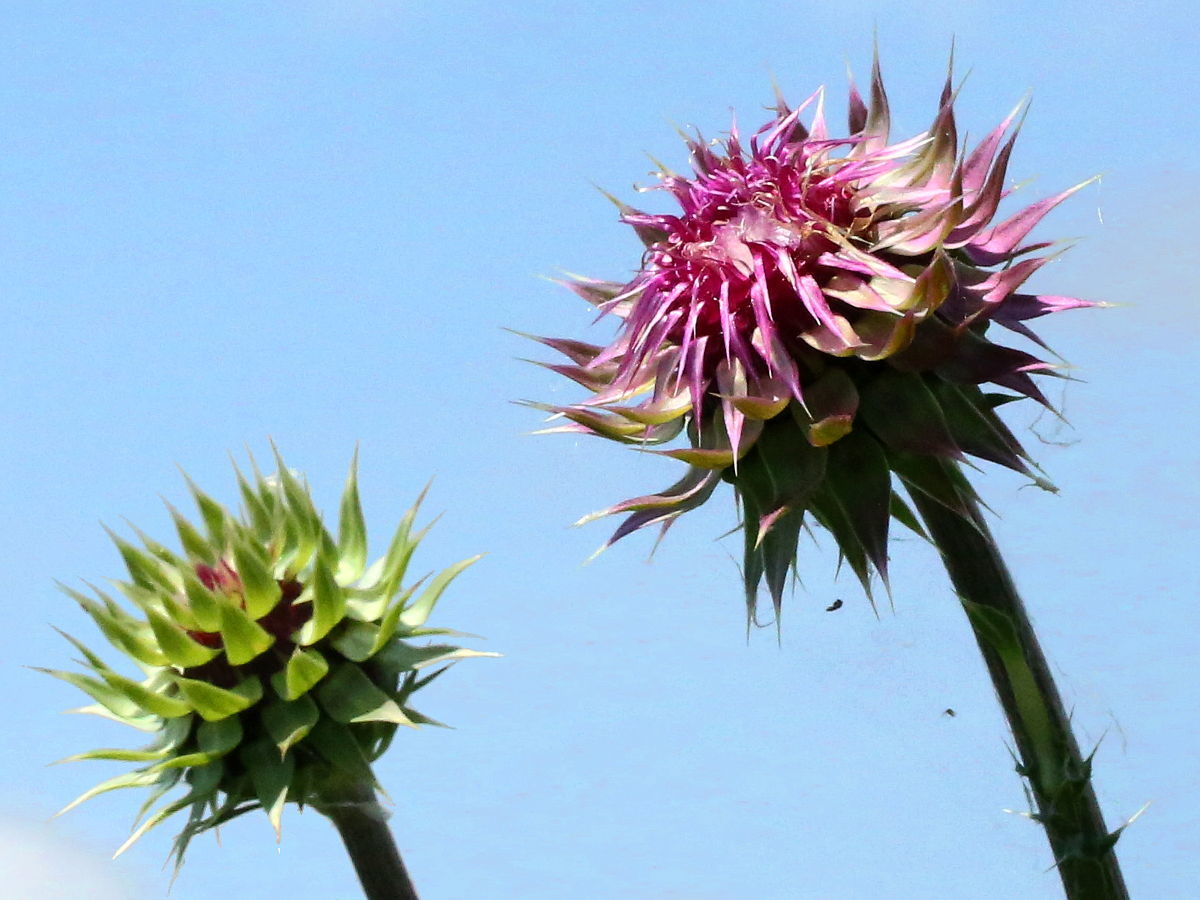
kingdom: Plantae
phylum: Tracheophyta
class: Magnoliopsida
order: Asterales
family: Asteraceae
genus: Carduus
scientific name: Carduus nutans
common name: Musk thistle
